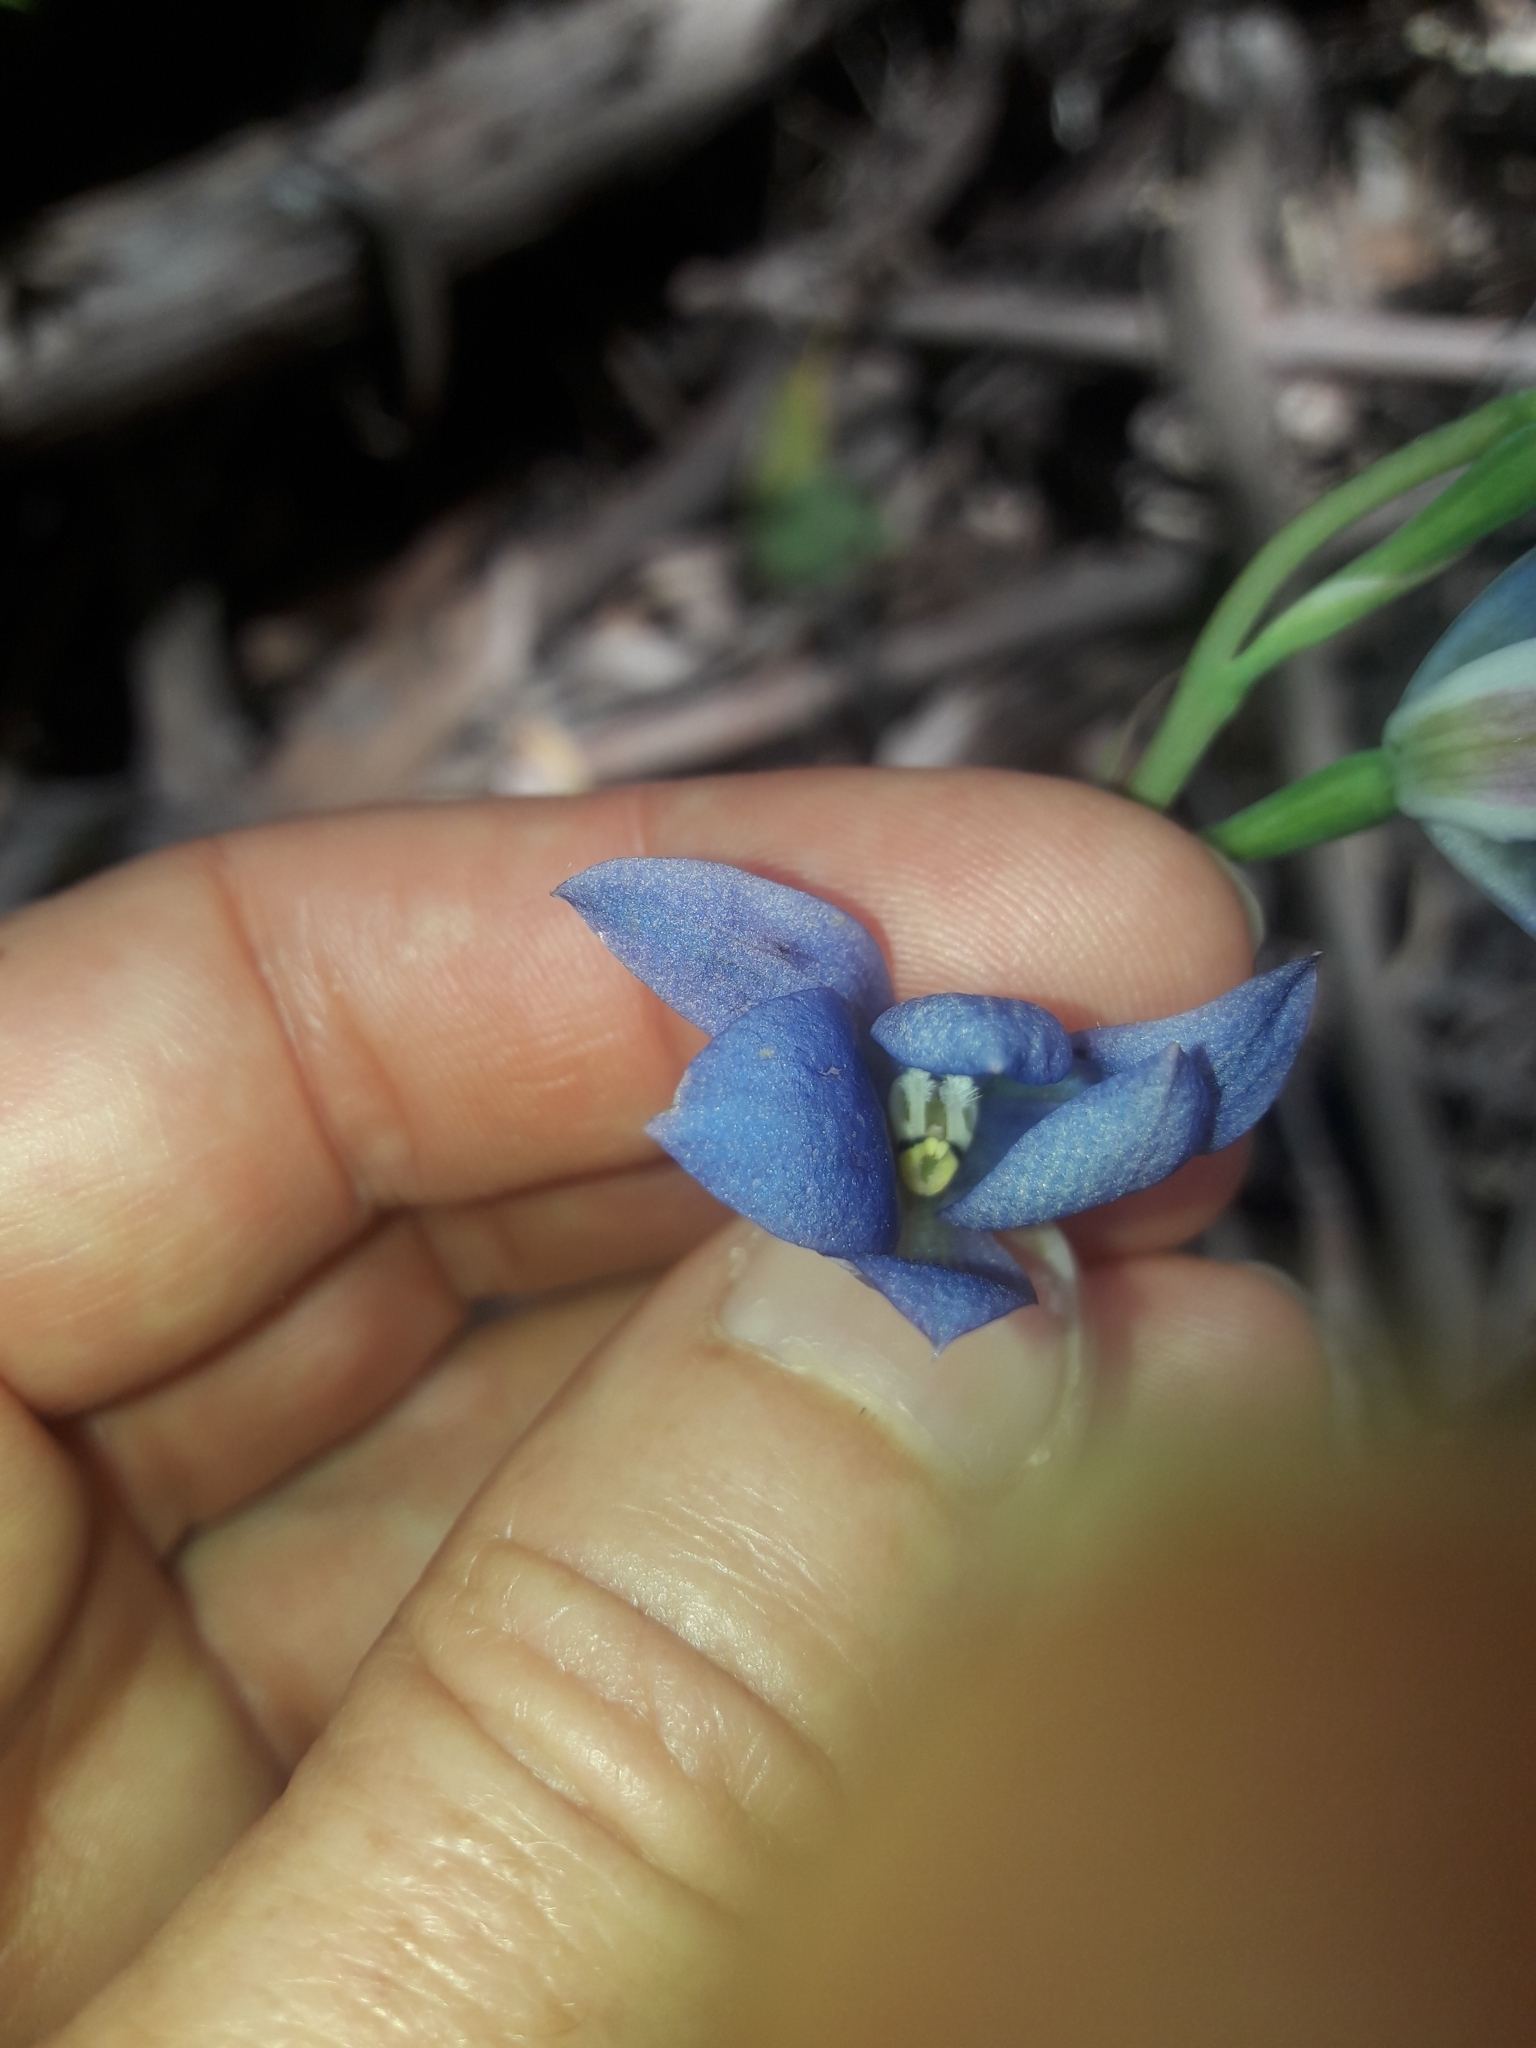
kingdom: Plantae
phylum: Tracheophyta
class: Liliopsida
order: Asparagales
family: Orchidaceae
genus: Thelymitra
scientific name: Thelymitra media
